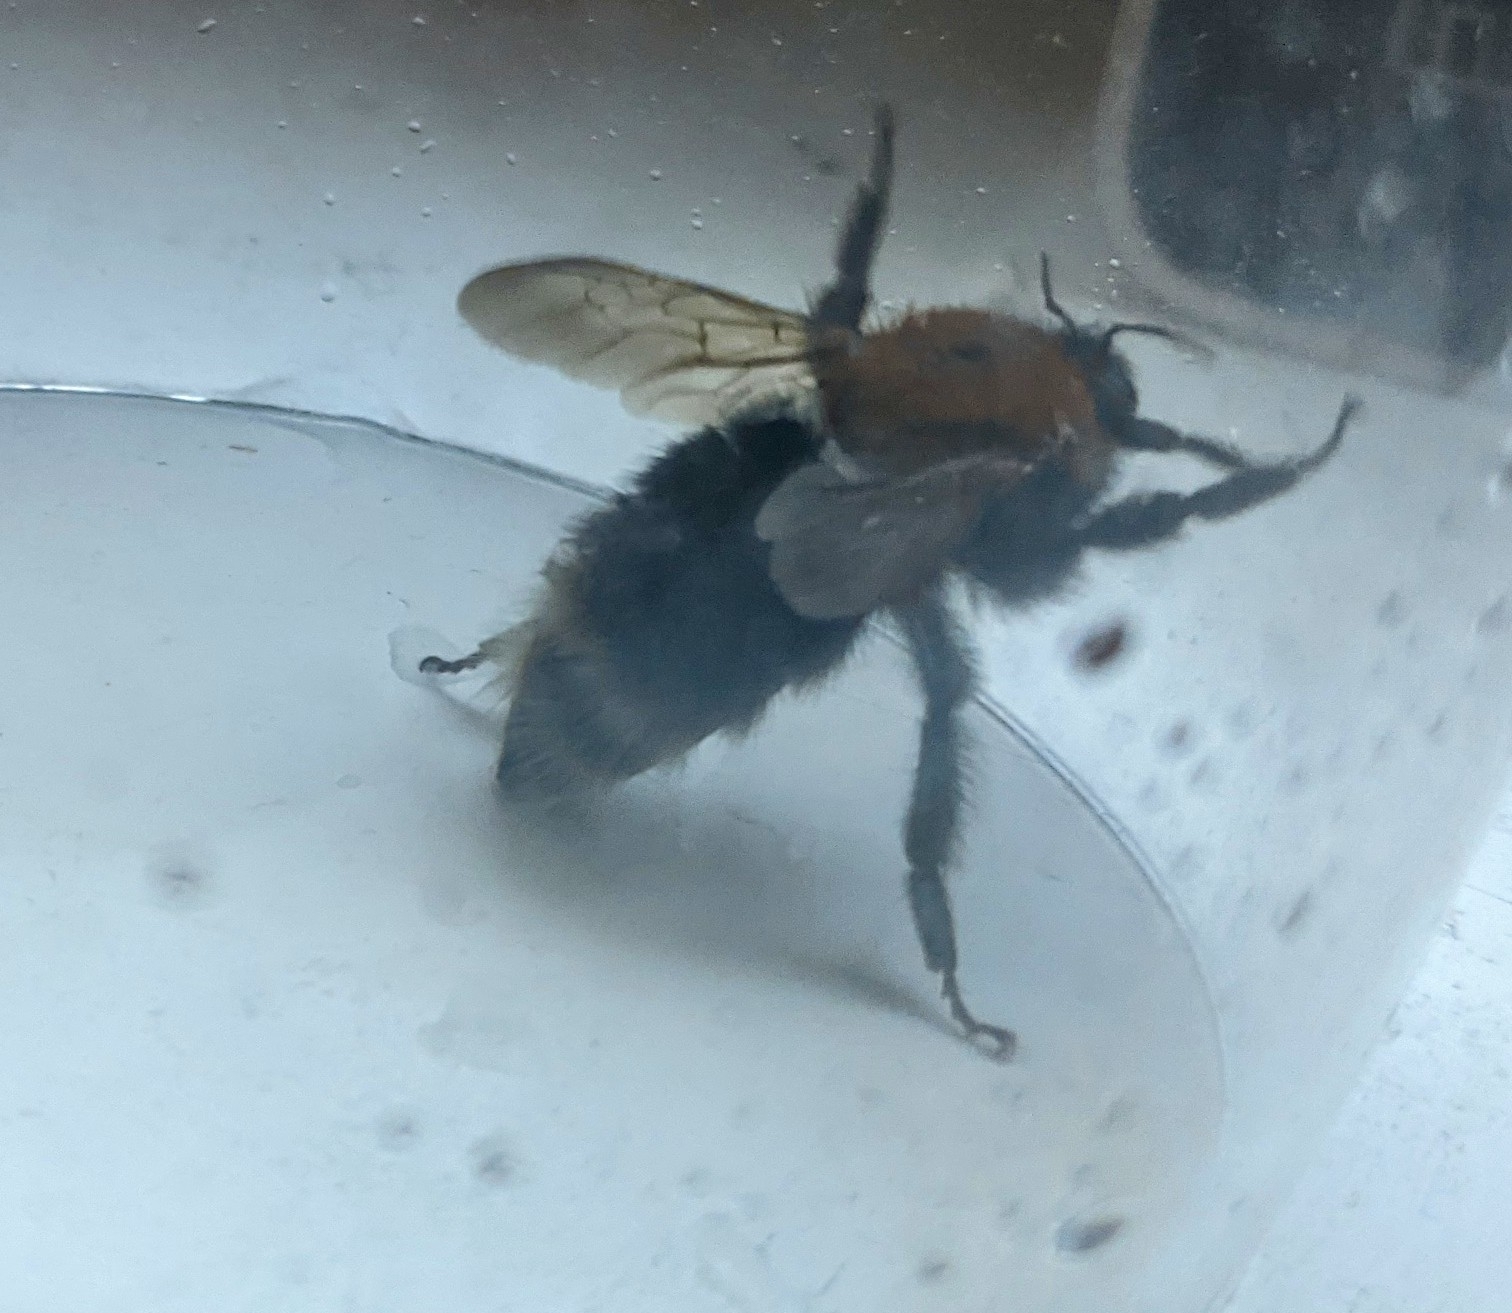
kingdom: Animalia
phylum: Arthropoda
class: Insecta
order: Hymenoptera
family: Apidae
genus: Bombus
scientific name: Bombus hypnorum
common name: New garden bumblebee
